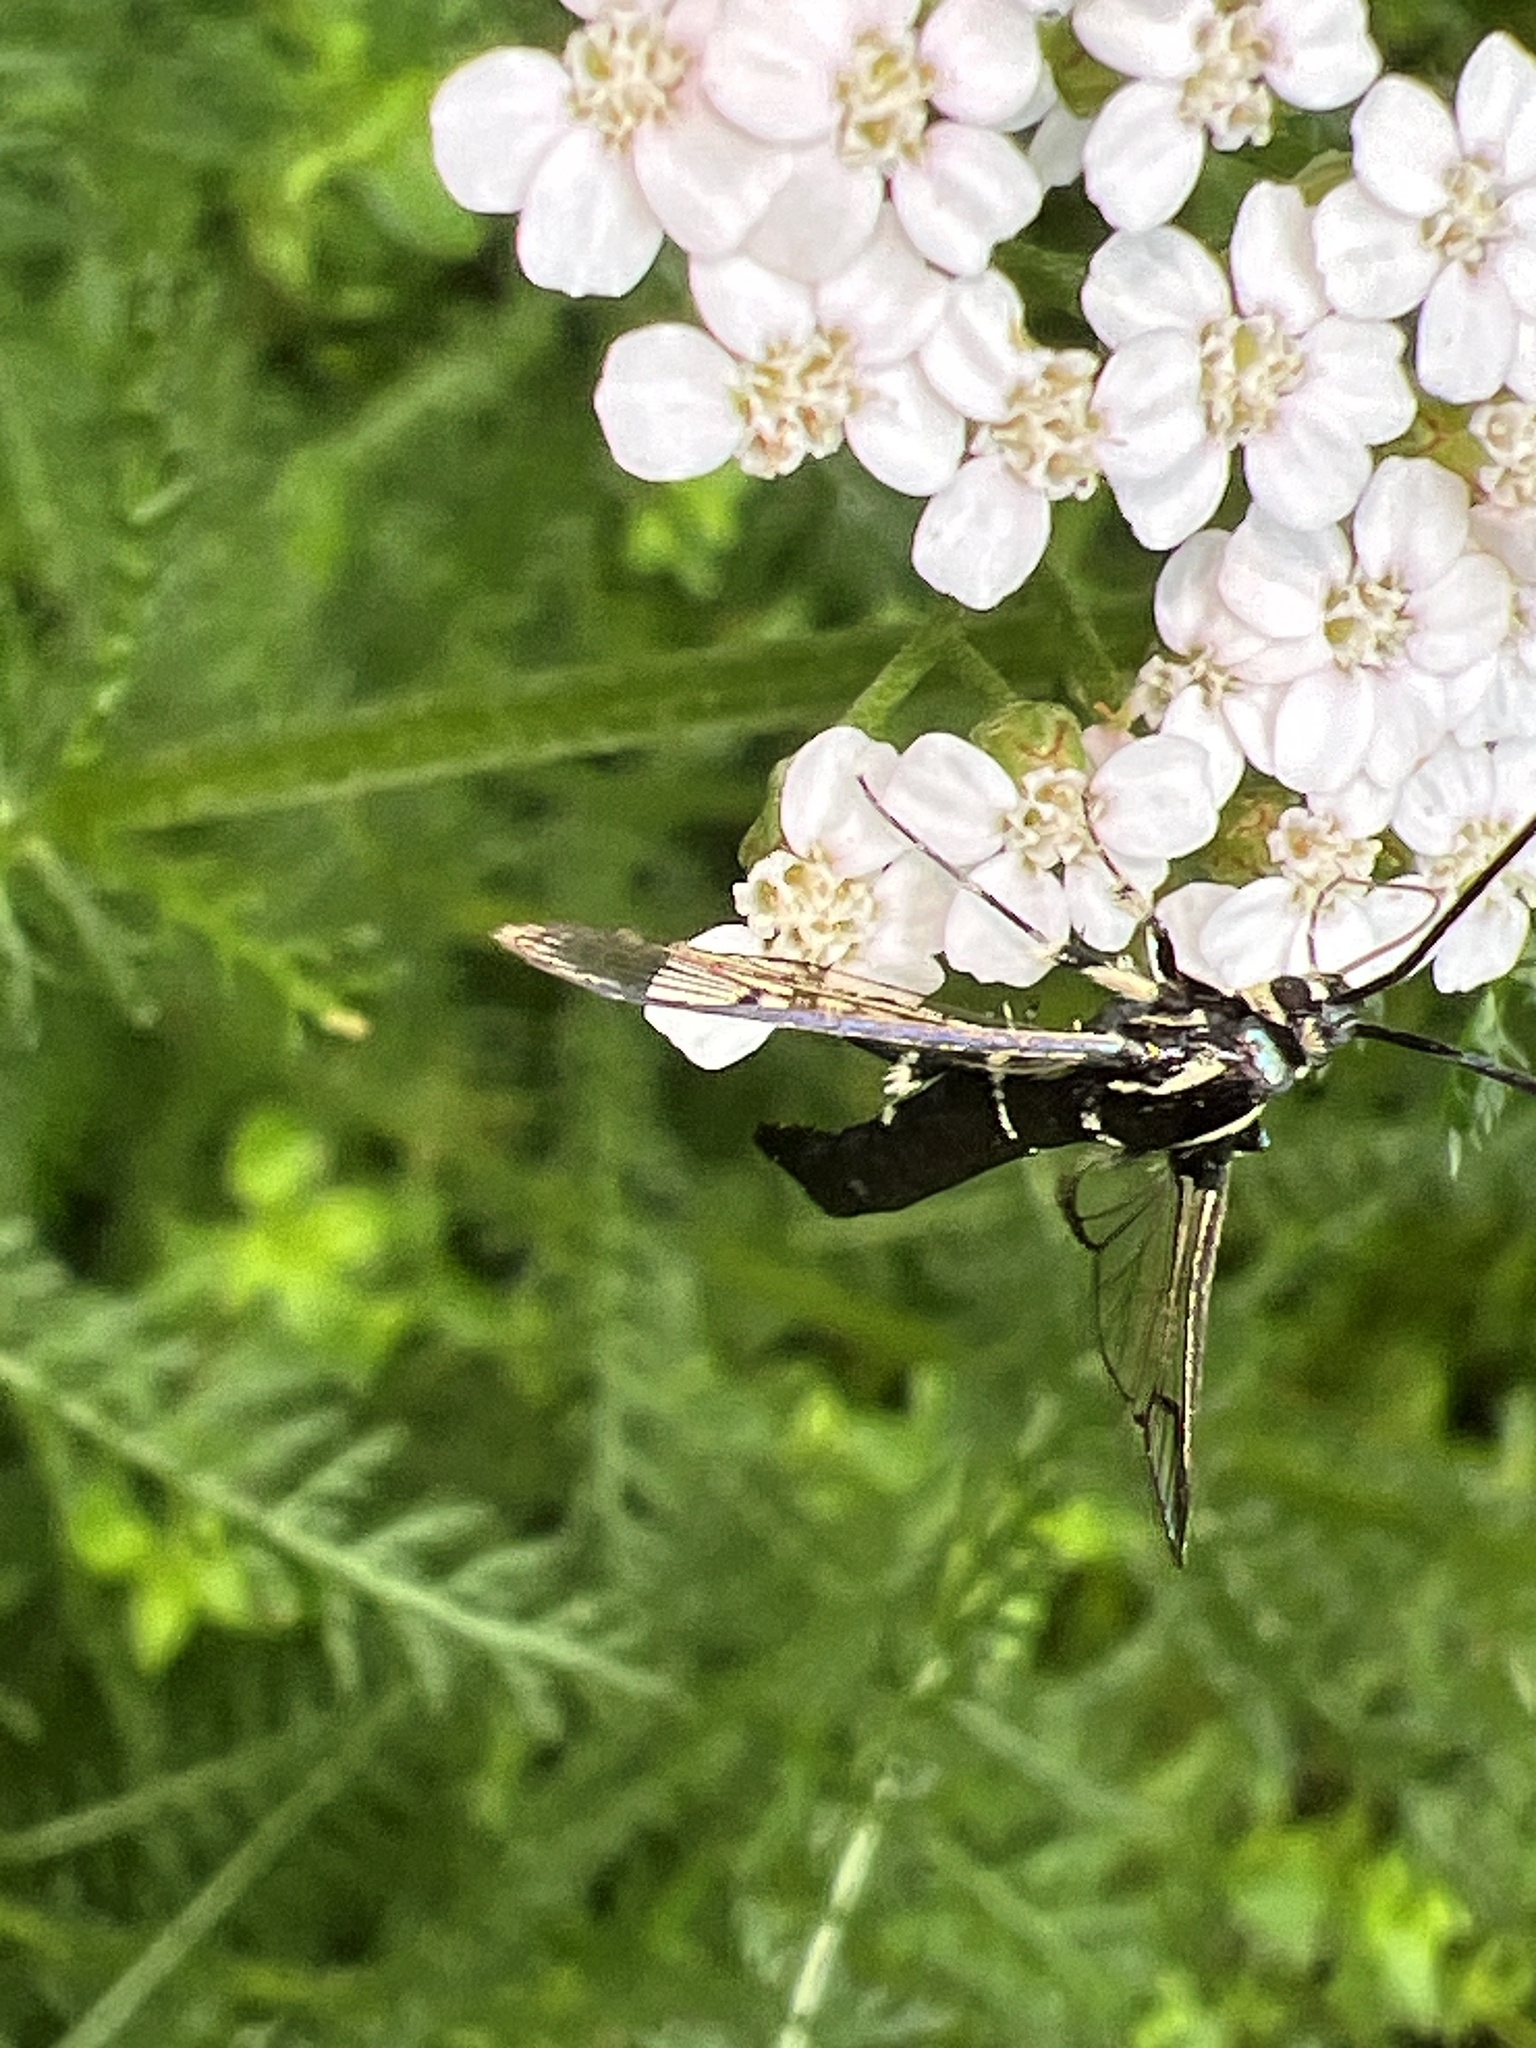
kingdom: Animalia
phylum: Arthropoda
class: Insecta
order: Lepidoptera
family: Sesiidae
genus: Synanthedon
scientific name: Synanthedon pictipes
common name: Lesser peachtree borer moth
